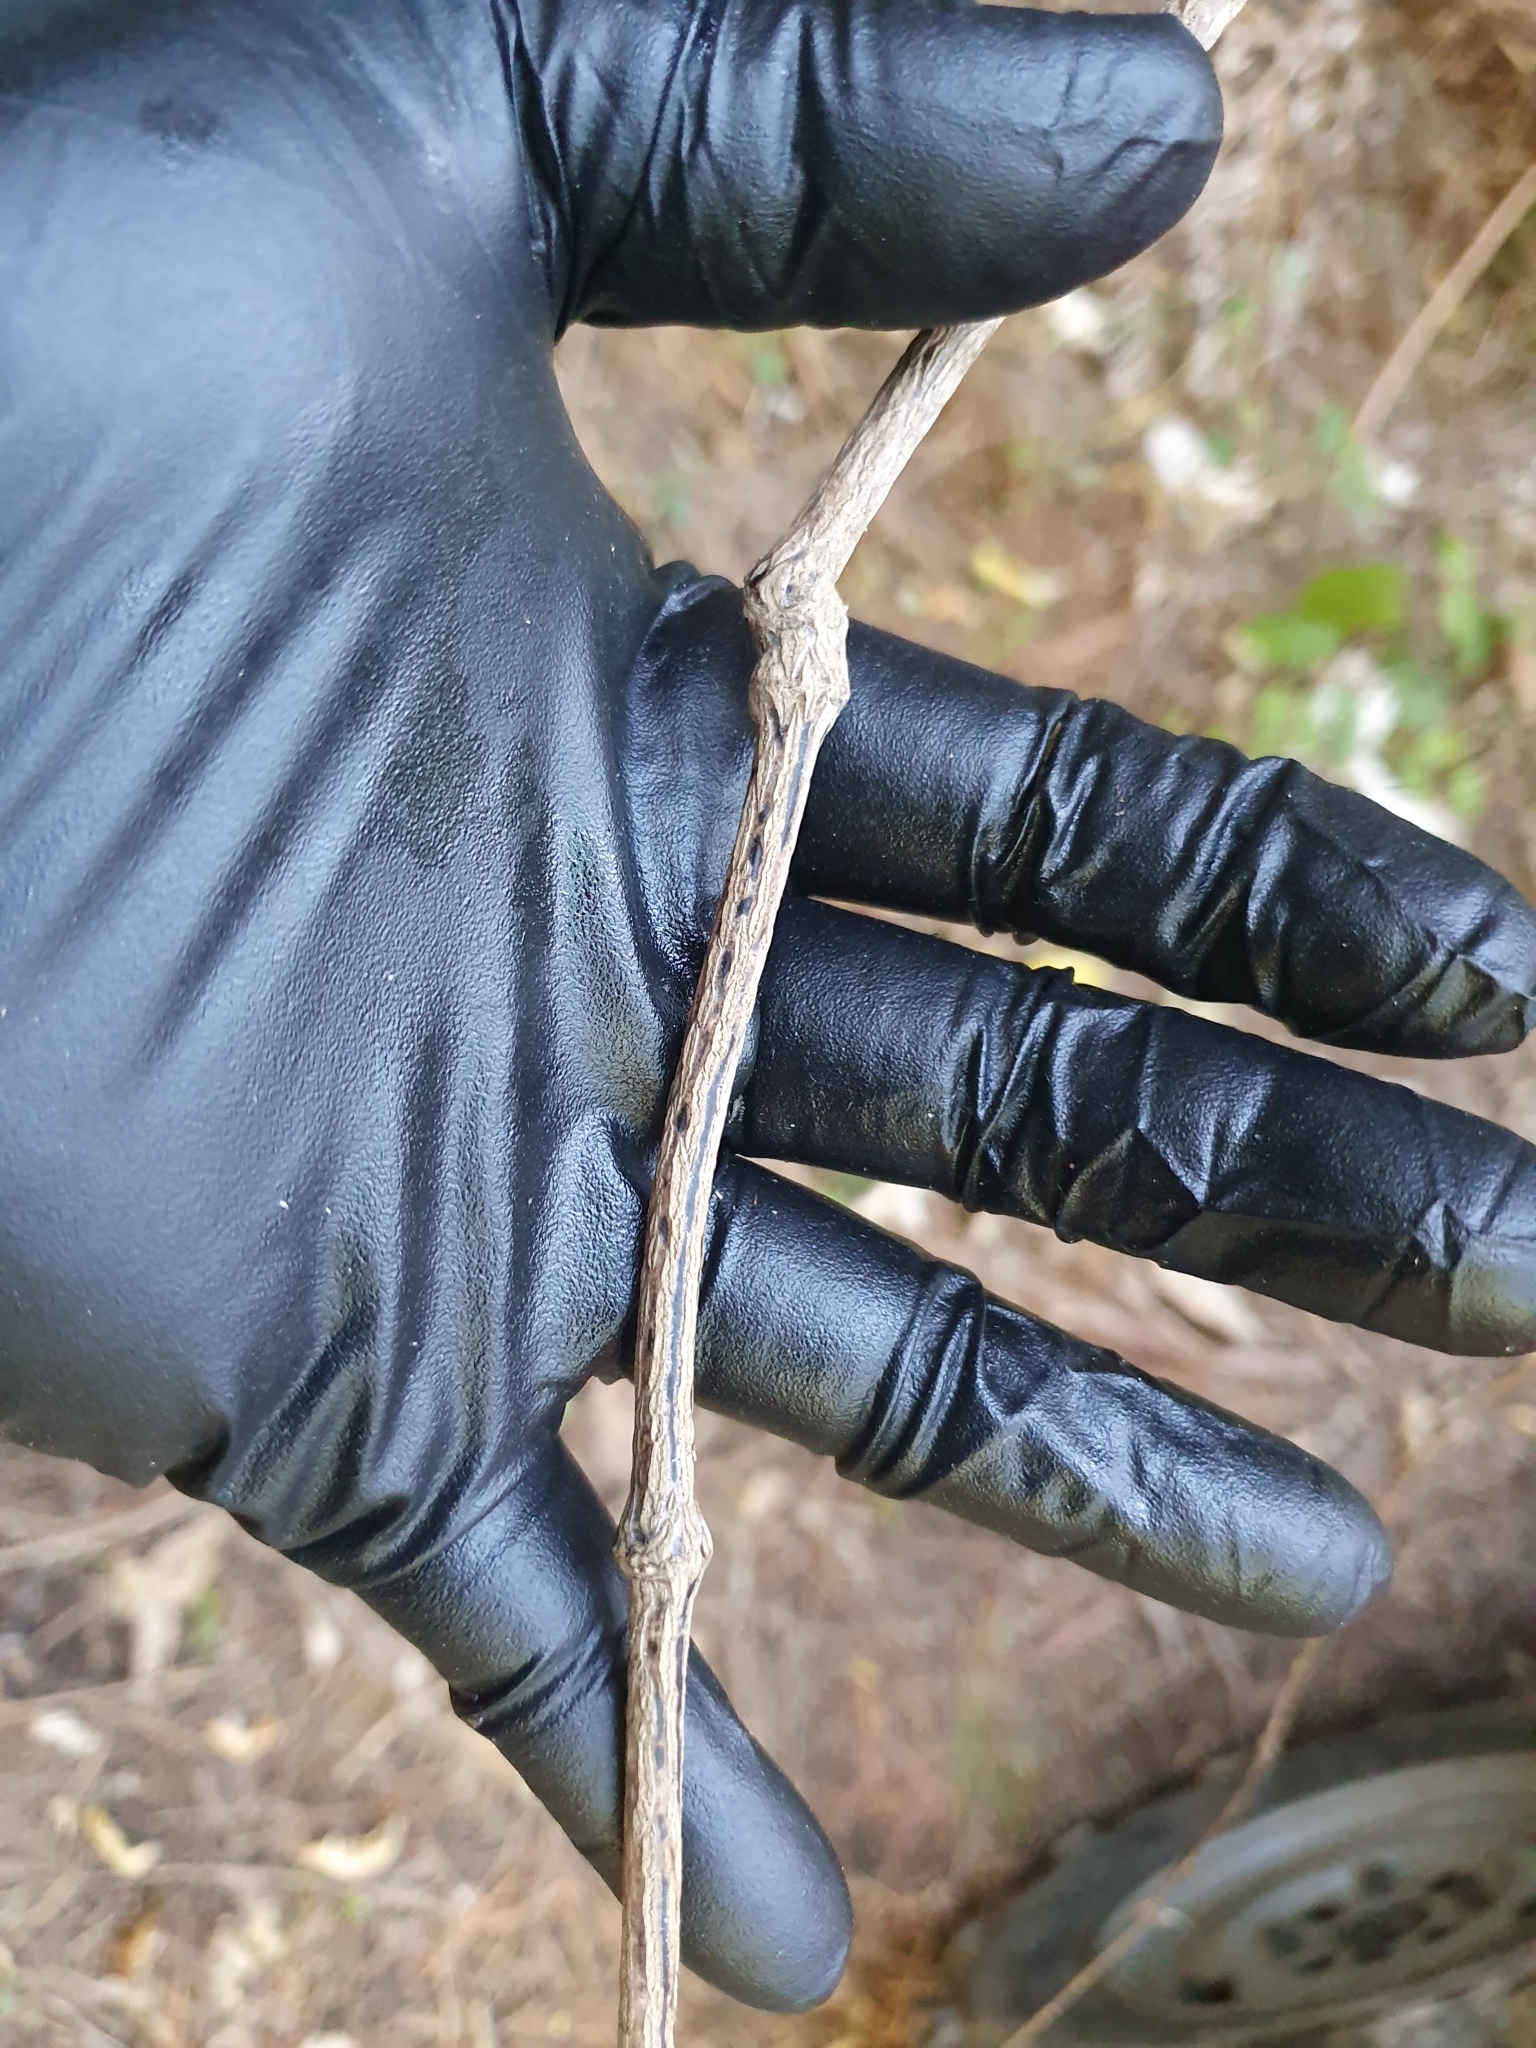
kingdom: Plantae
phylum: Tracheophyta
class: Magnoliopsida
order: Ranunculales
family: Ranunculaceae
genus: Clematis
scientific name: Clematis forsteri
